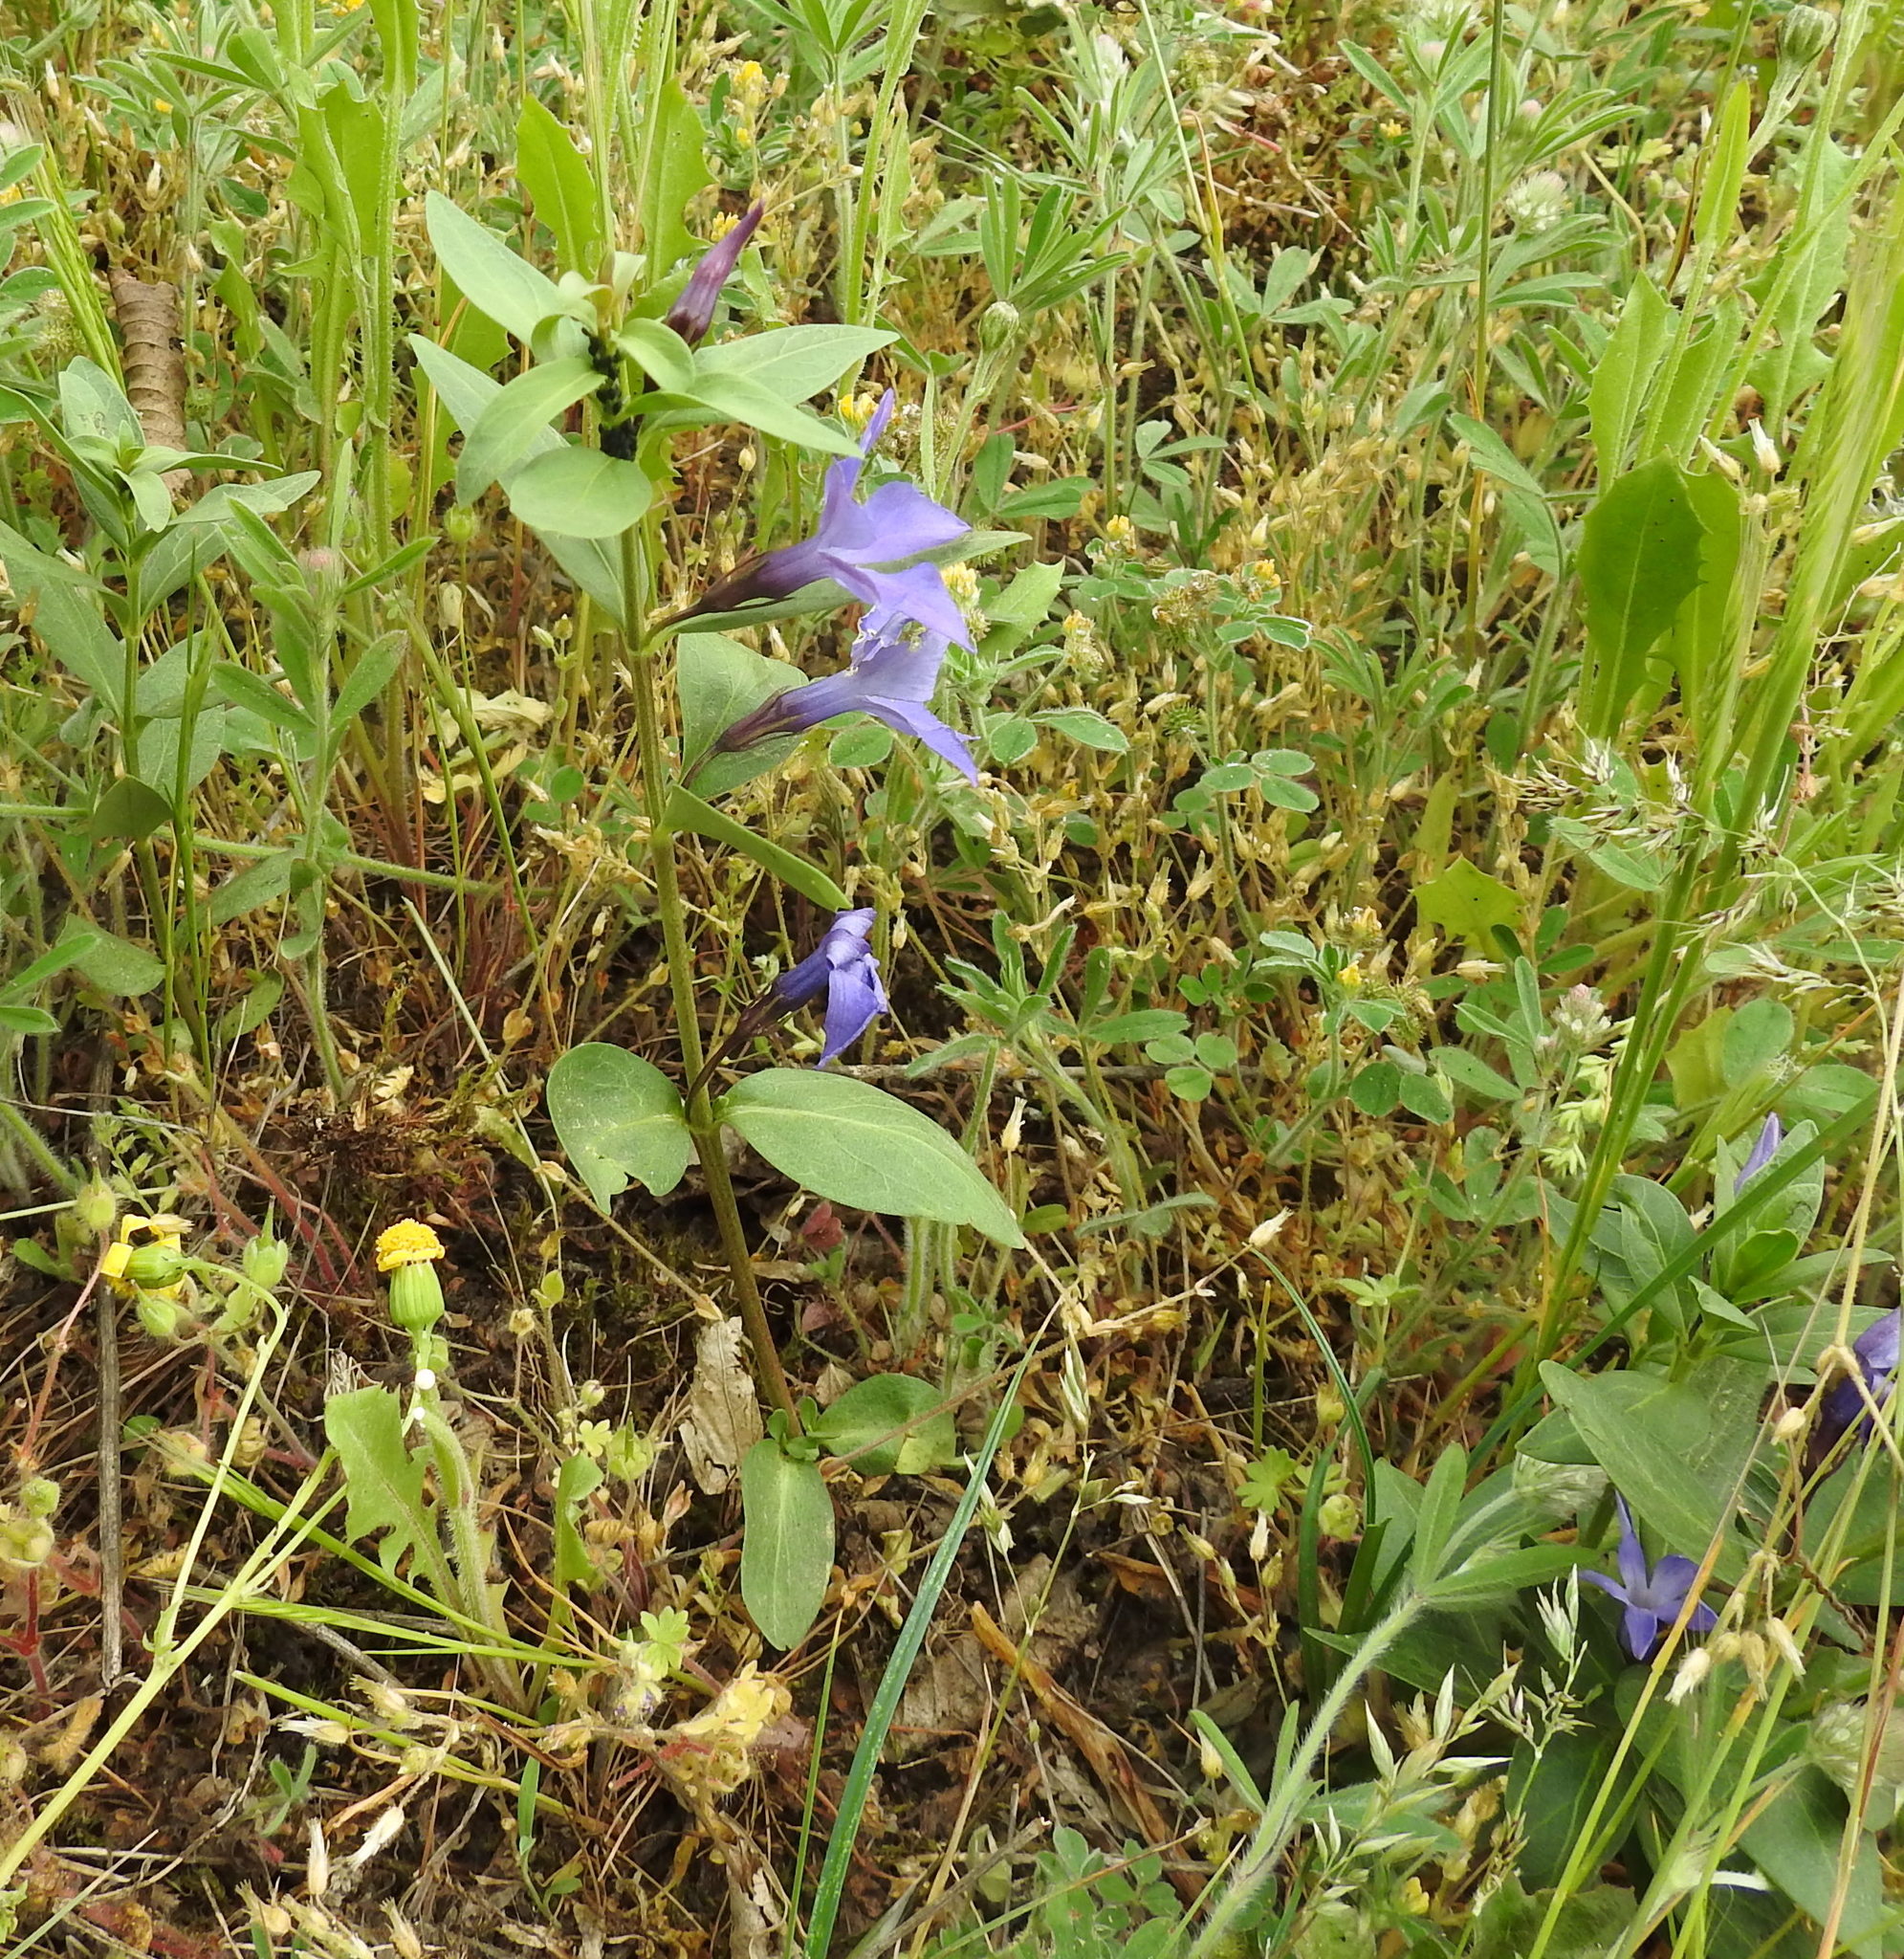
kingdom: Plantae
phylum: Tracheophyta
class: Magnoliopsida
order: Gentianales
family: Apocynaceae
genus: Vinca
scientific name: Vinca herbacea
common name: Herbaceous periwinkle
